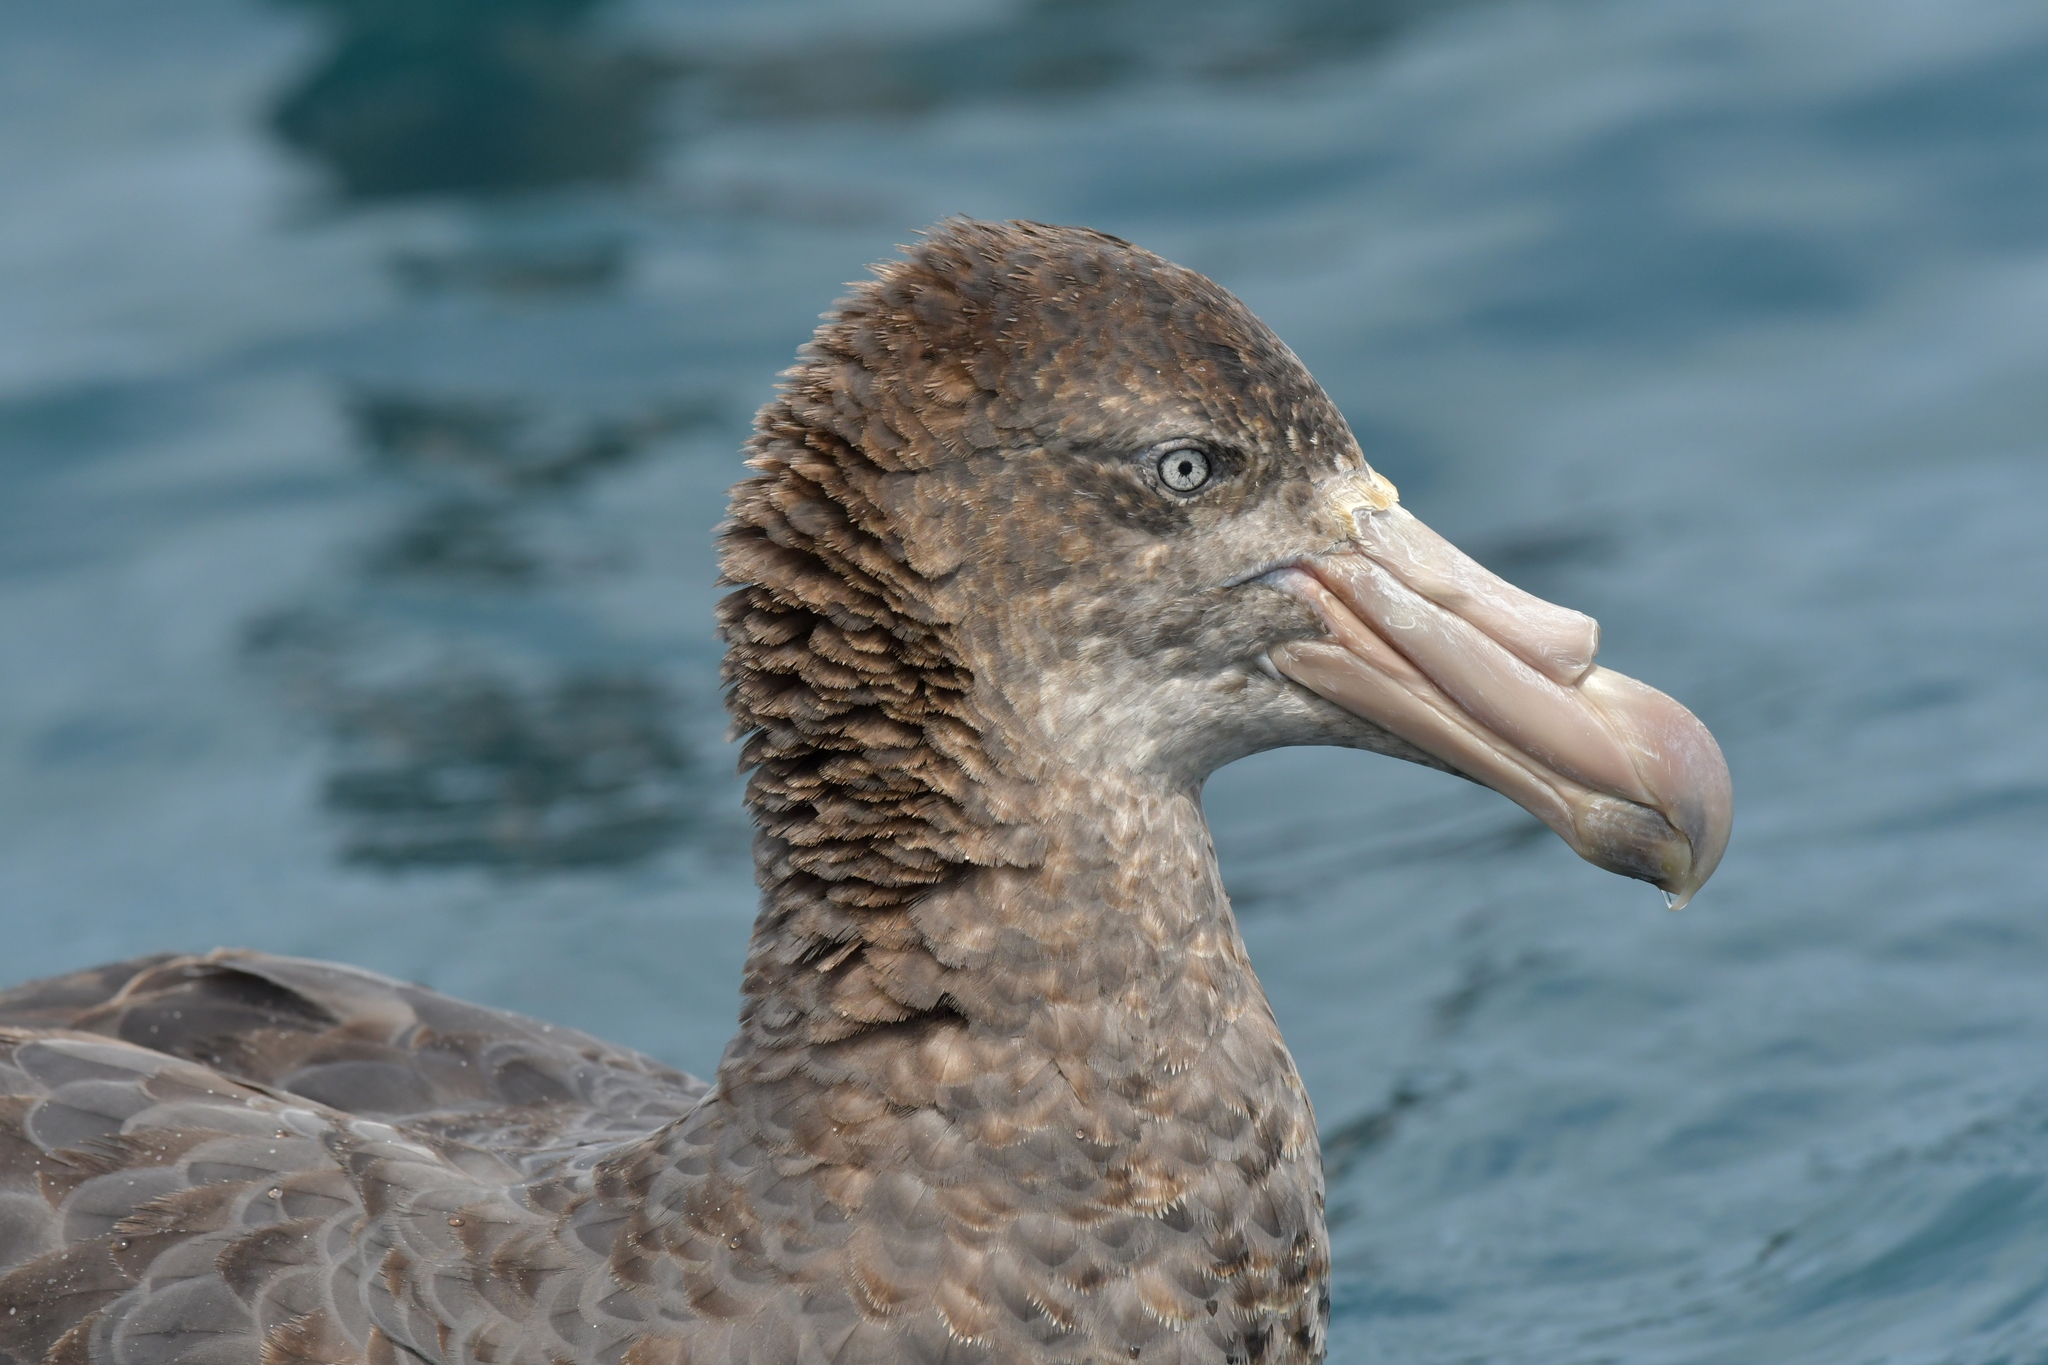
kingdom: Animalia
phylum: Chordata
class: Aves
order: Procellariiformes
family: Procellariidae
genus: Macronectes
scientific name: Macronectes halli
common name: Northern giant petrel
